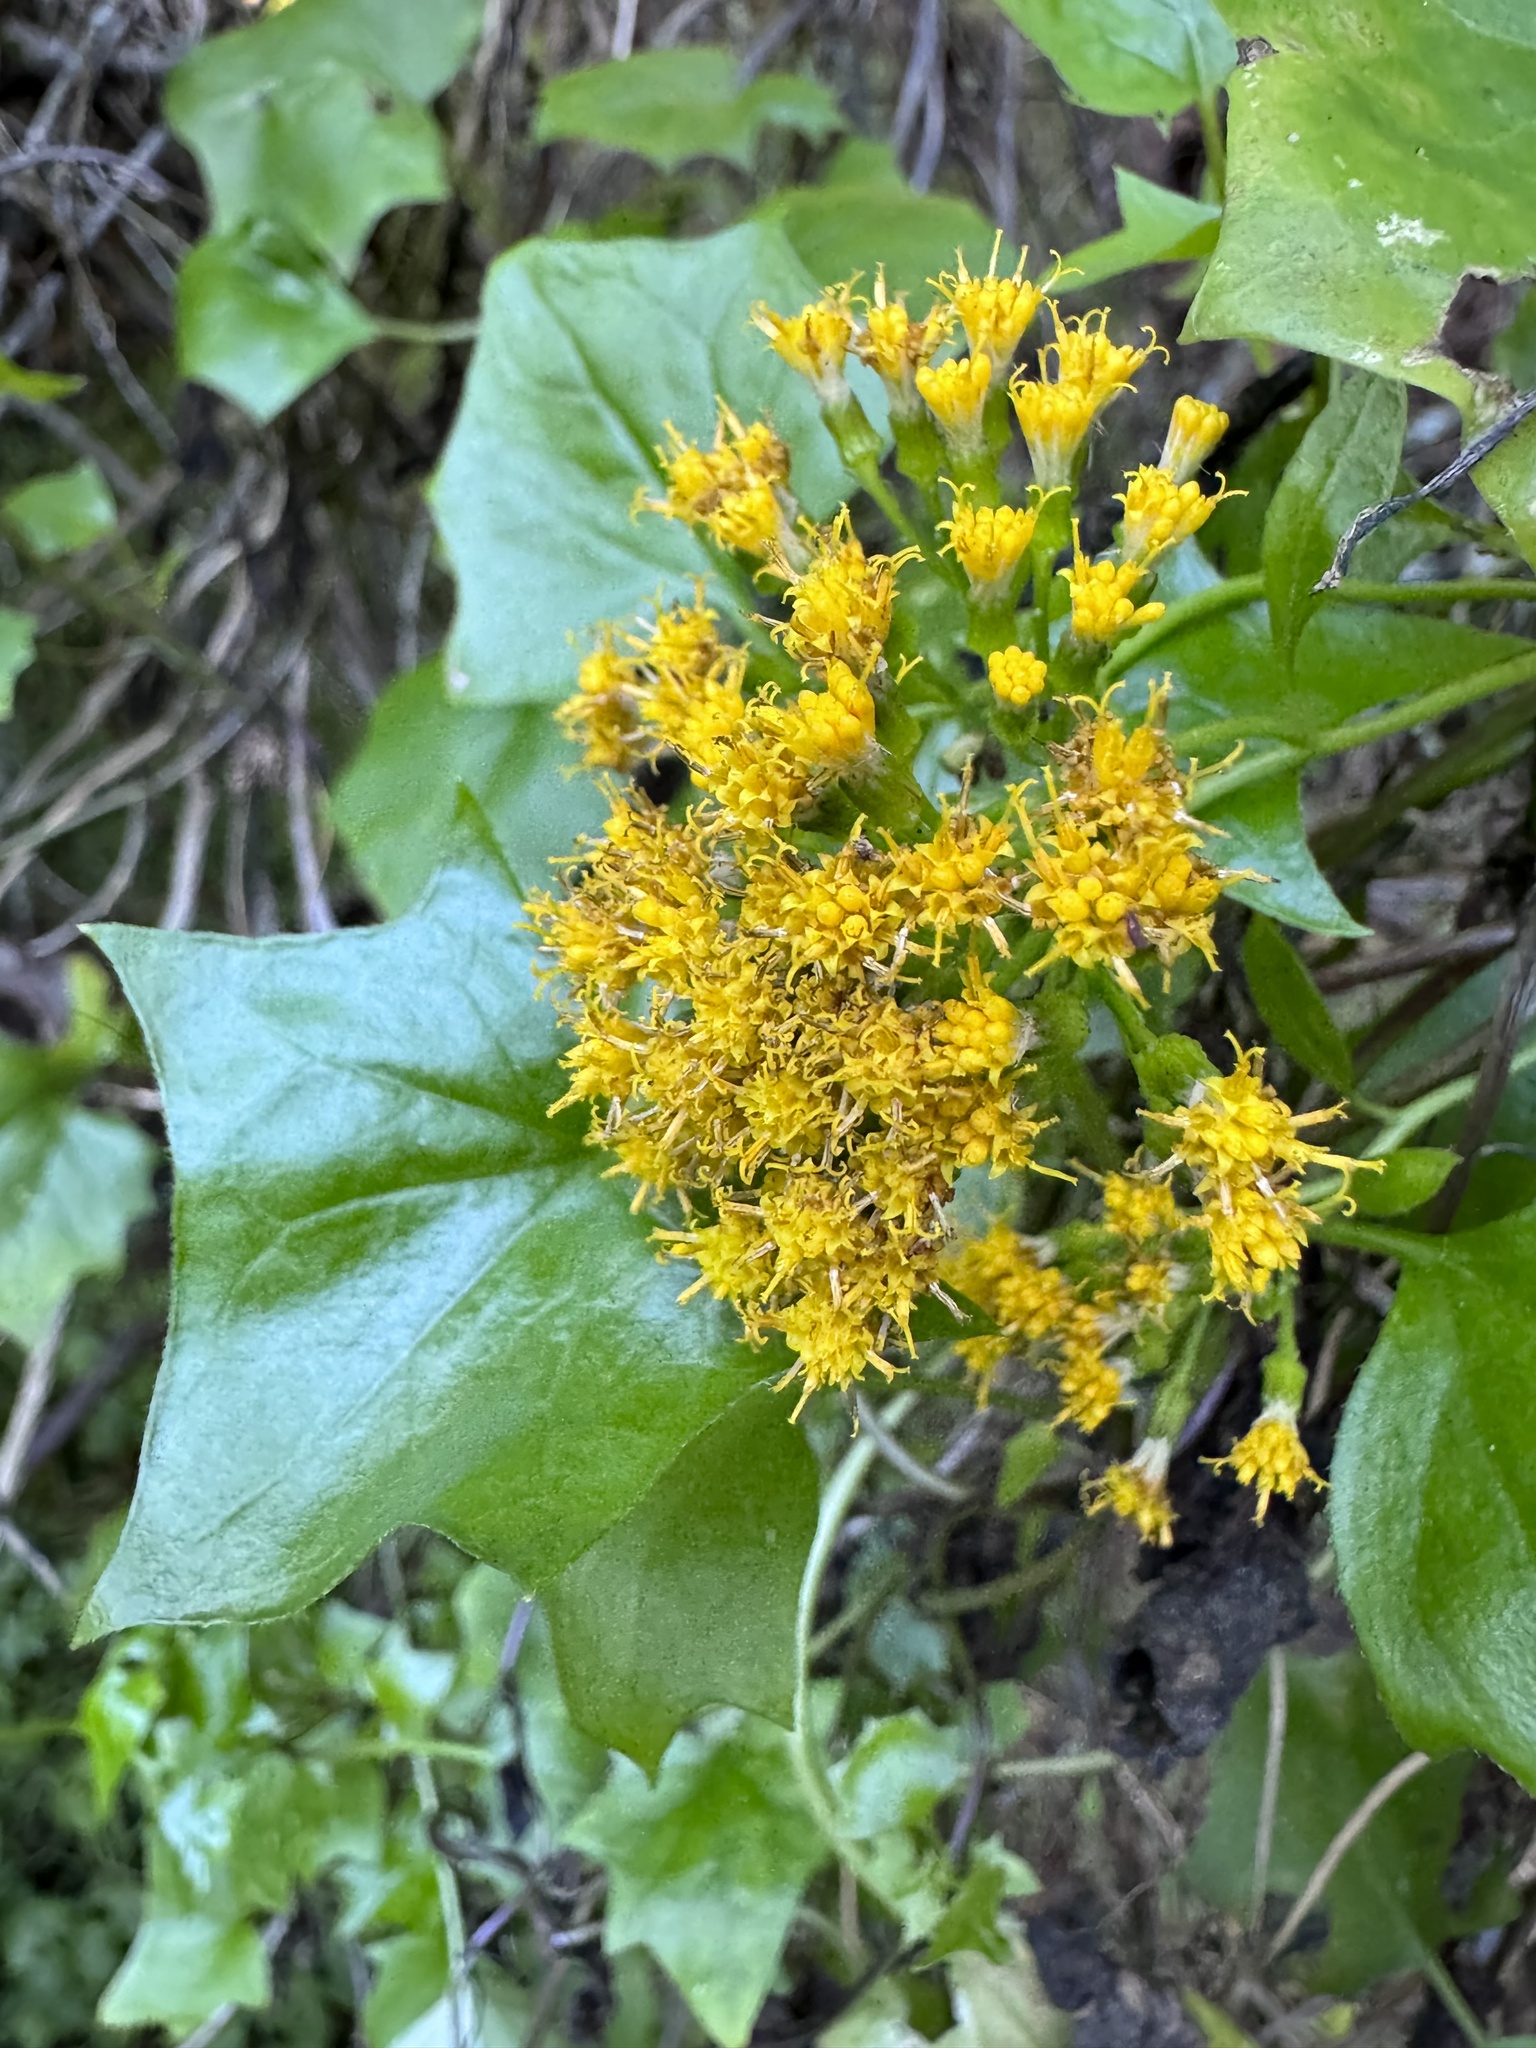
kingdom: Plantae
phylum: Tracheophyta
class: Magnoliopsida
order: Asterales
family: Asteraceae
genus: Delairea
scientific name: Delairea odorata
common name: Cape-ivy
